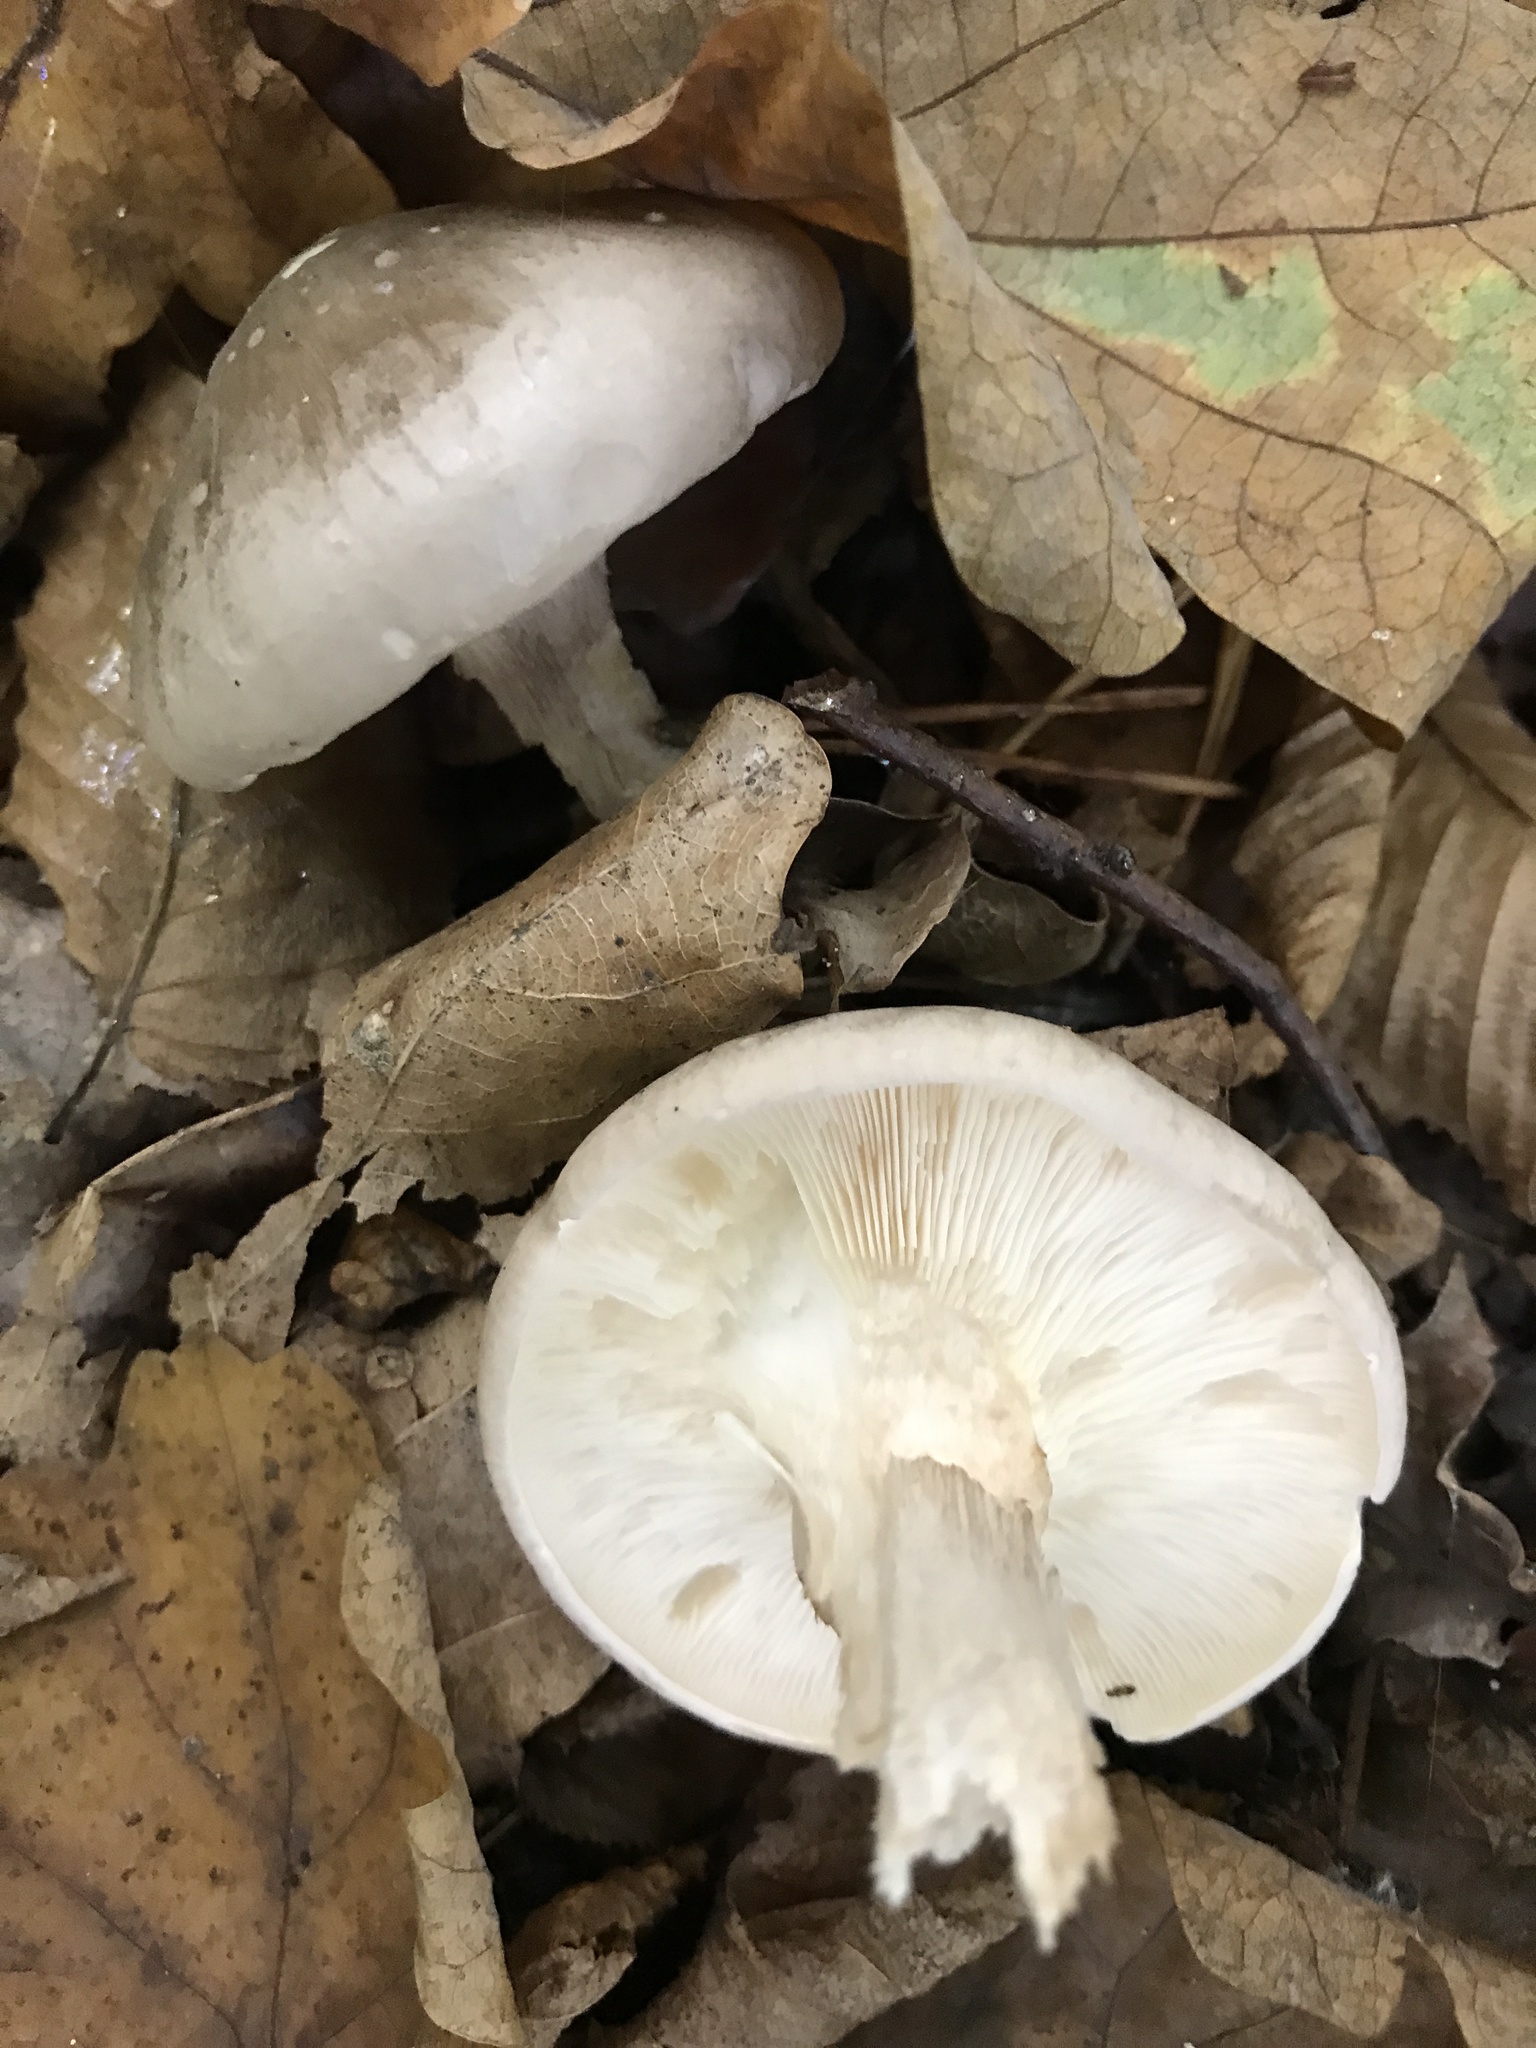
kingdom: Fungi
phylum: Basidiomycota
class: Agaricomycetes
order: Agaricales
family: Tricholomataceae
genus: Clitocybe
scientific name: Clitocybe nebularis
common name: Clouded agaric
